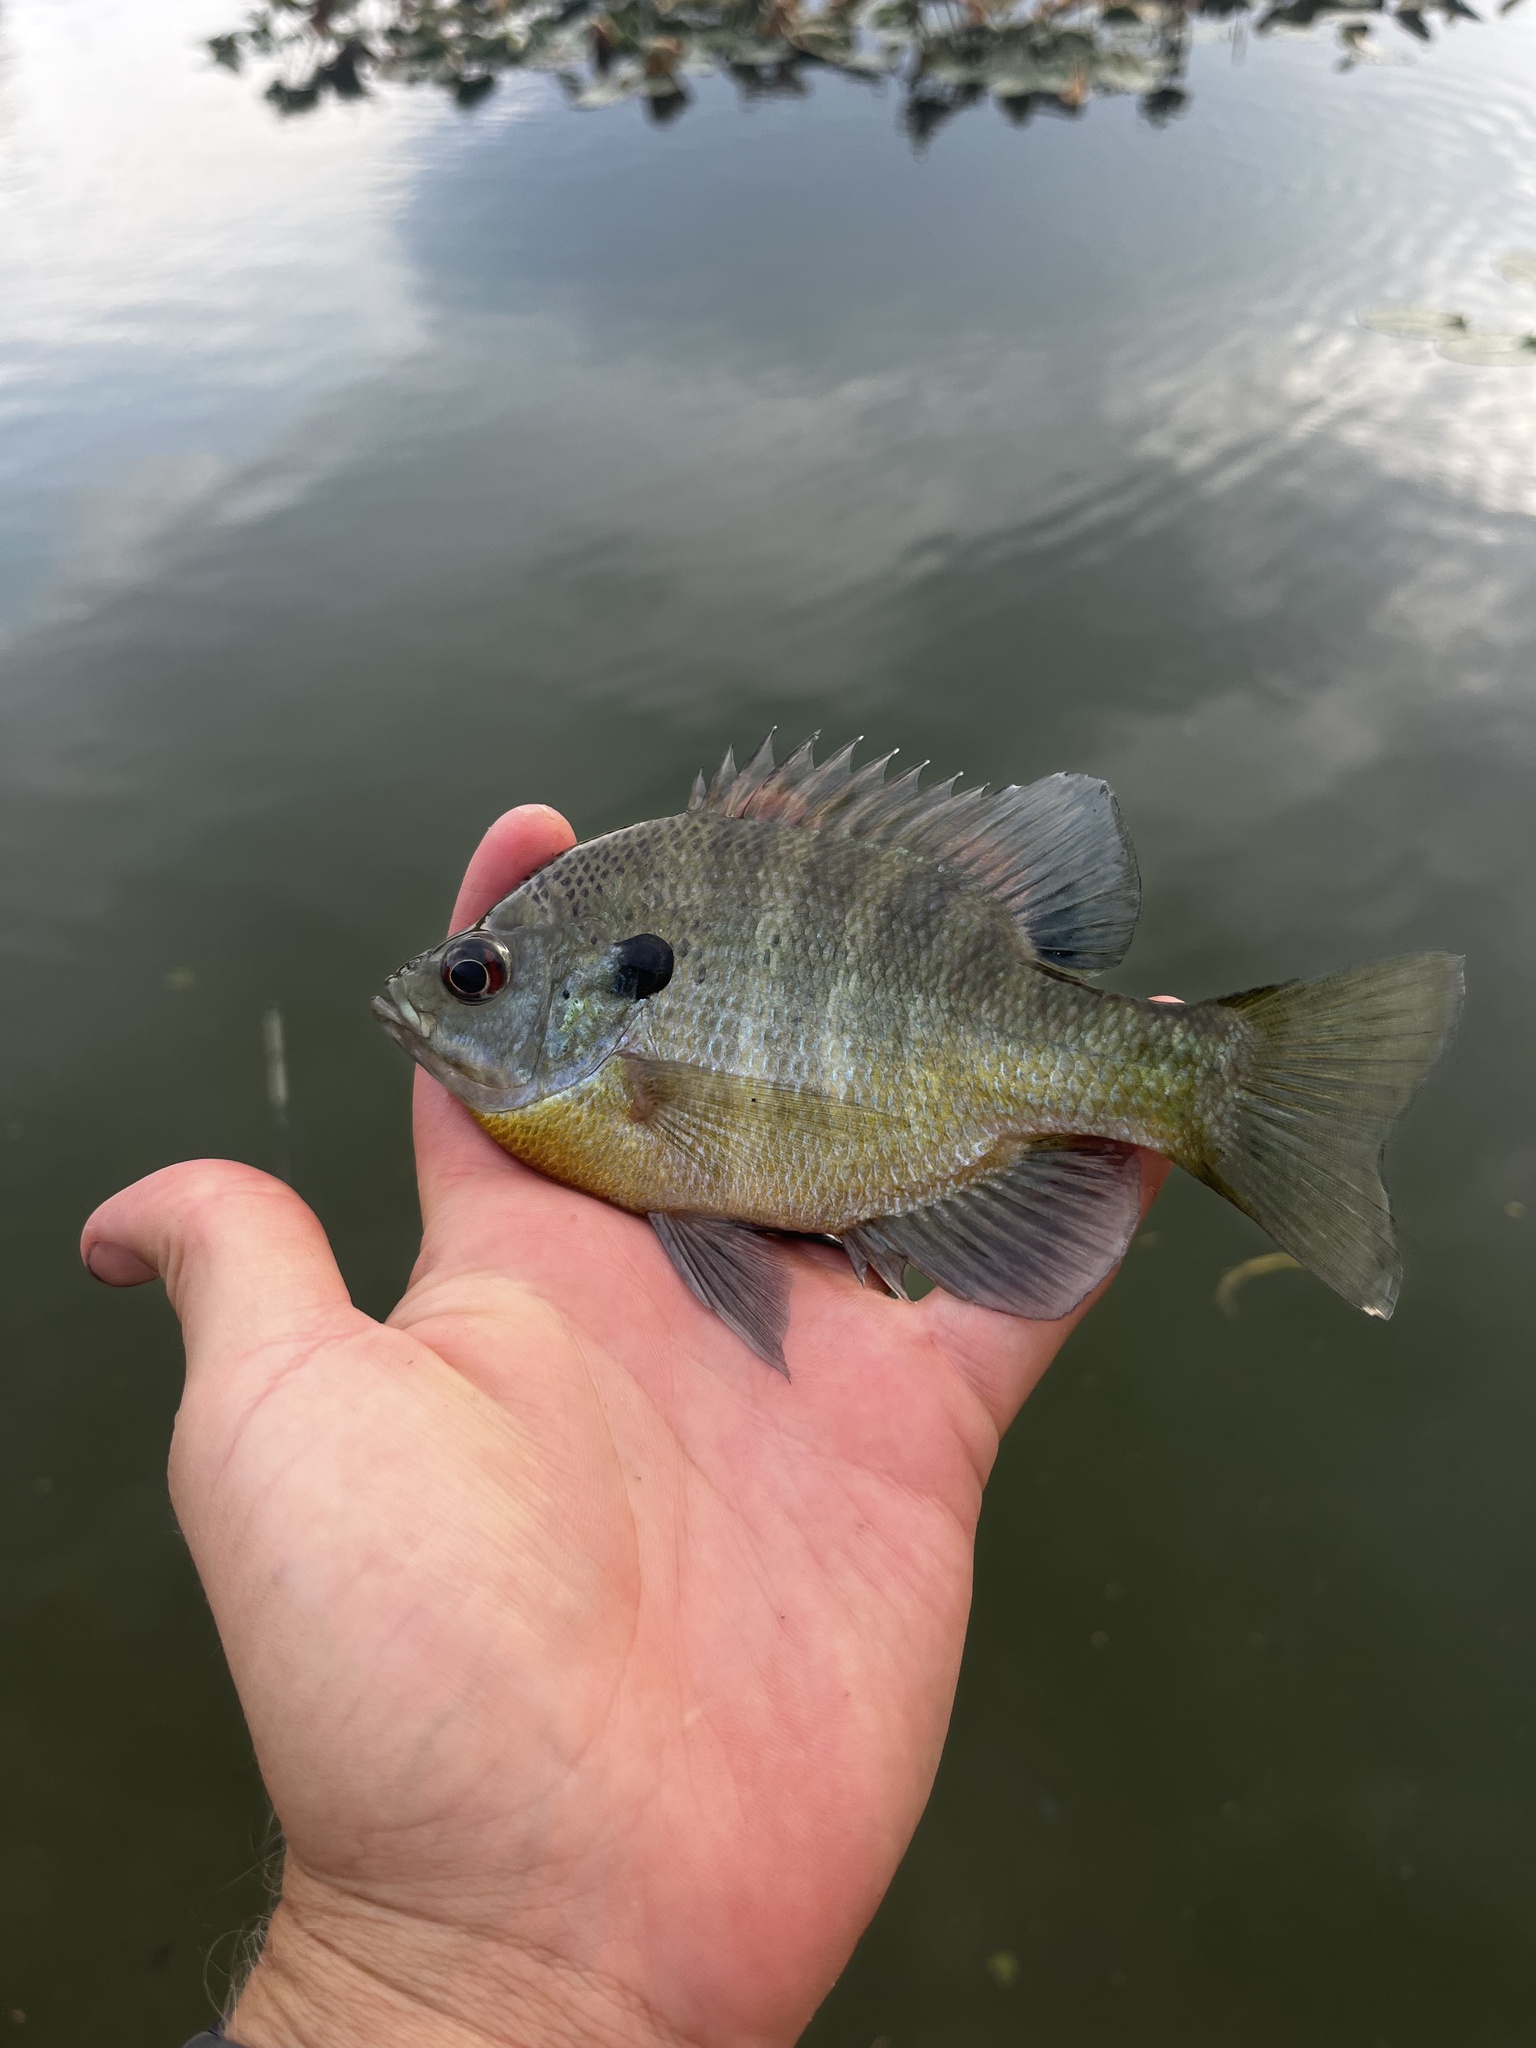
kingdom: Animalia
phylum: Chordata
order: Perciformes
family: Centrarchidae
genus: Lepomis
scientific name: Lepomis macrochirus
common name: Bluegill
